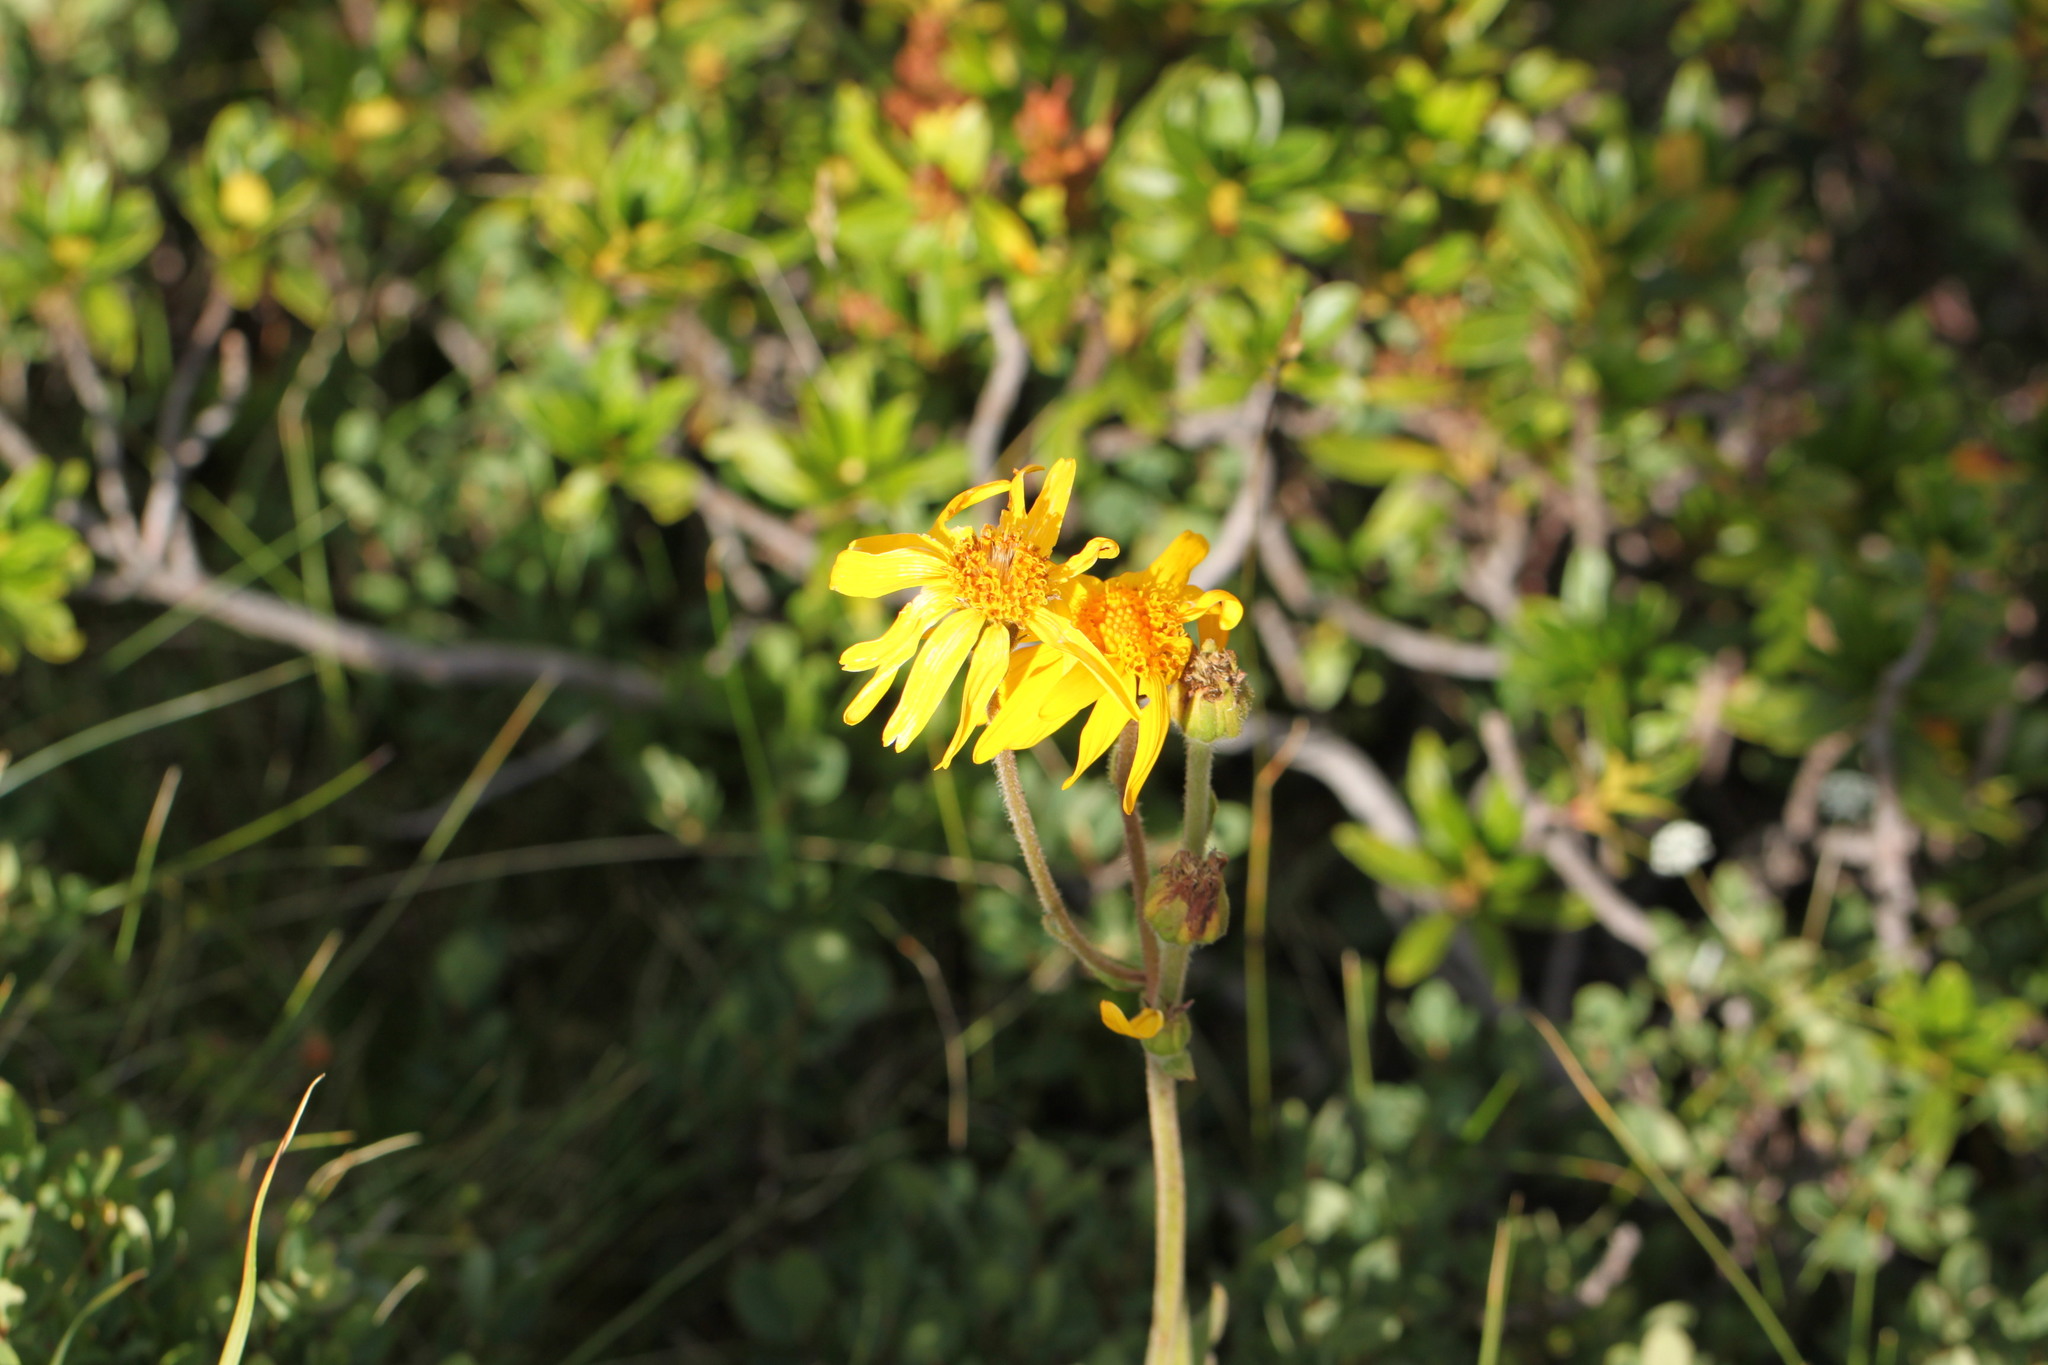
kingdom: Plantae
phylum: Tracheophyta
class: Magnoliopsida
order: Asterales
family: Asteraceae
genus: Arnica
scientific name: Arnica montana
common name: Leopard's bane
